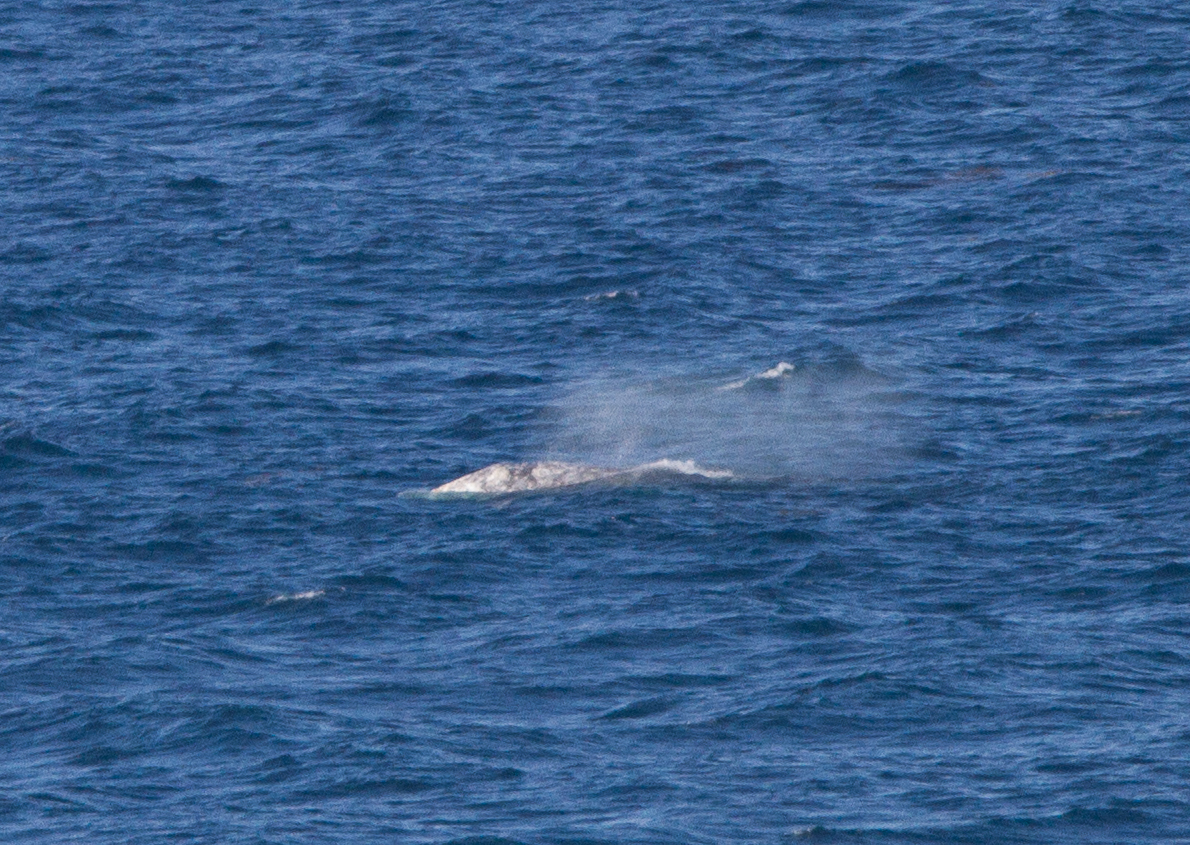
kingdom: Animalia
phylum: Chordata
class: Mammalia
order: Cetacea
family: Eschrichtiidae
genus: Eschrichtius
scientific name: Eschrichtius robustus
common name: Gray whale
